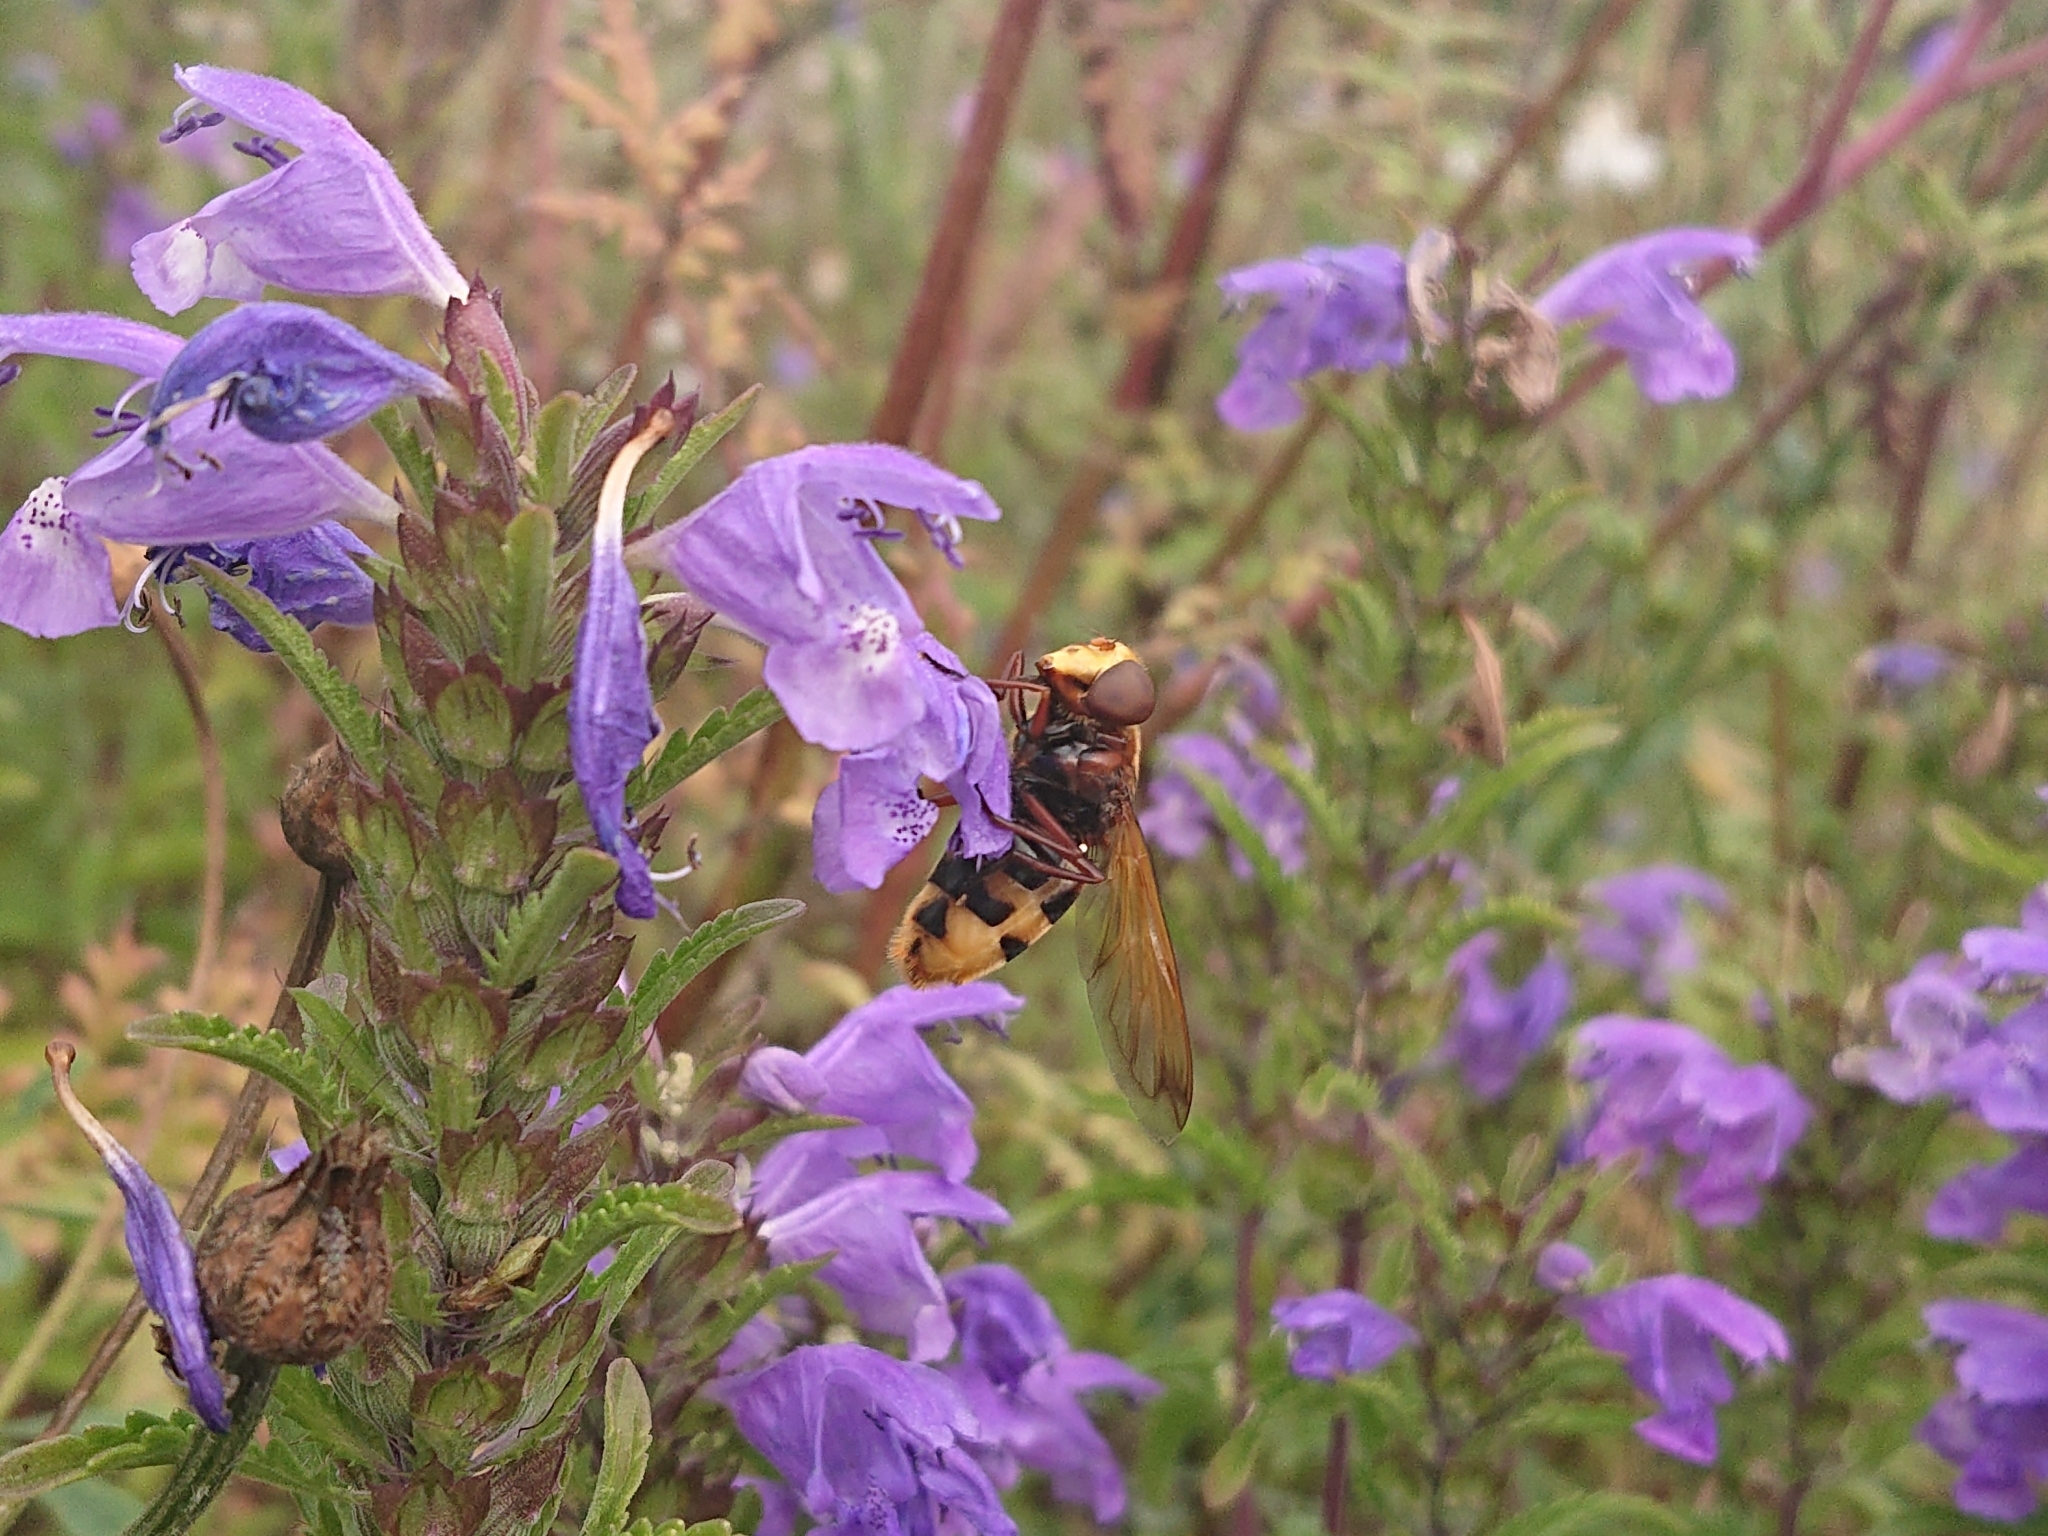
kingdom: Animalia
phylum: Arthropoda
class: Insecta
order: Diptera
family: Syrphidae
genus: Volucella
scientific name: Volucella zonaria
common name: Hornet hoverfly
